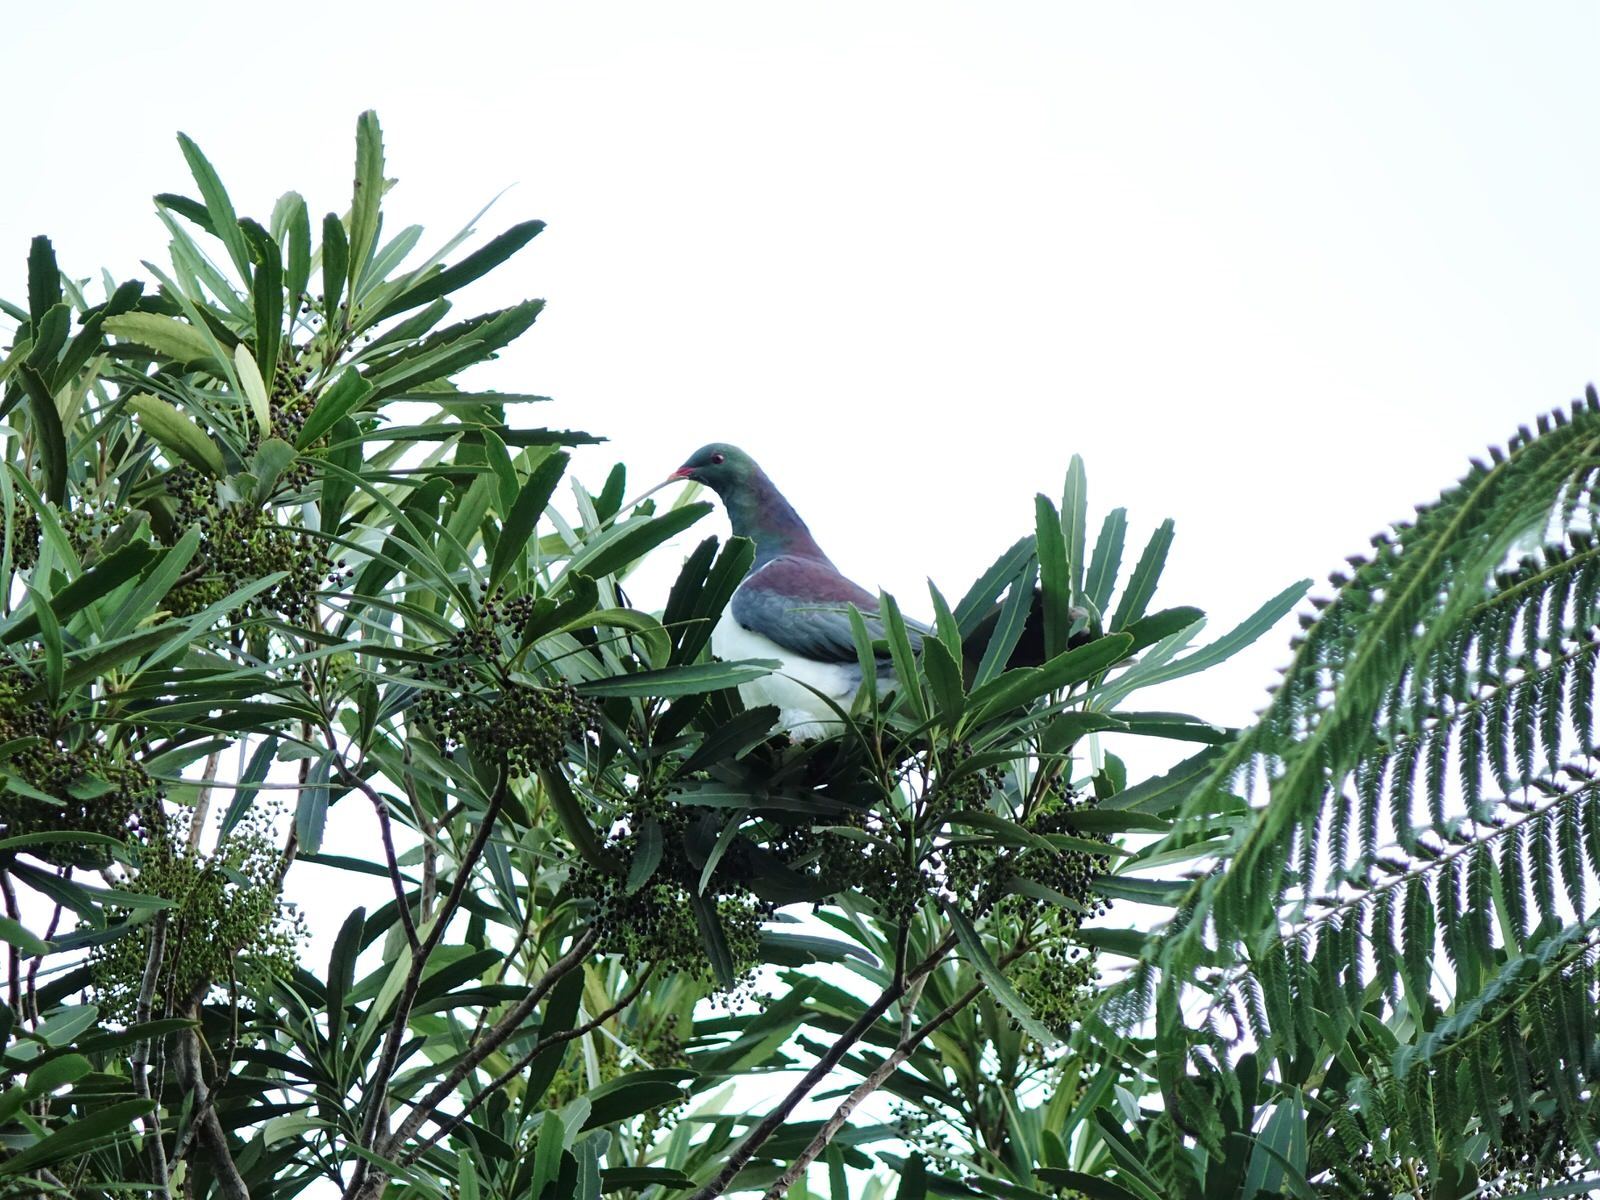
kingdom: Animalia
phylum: Chordata
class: Aves
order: Columbiformes
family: Columbidae
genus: Hemiphaga
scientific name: Hemiphaga novaeseelandiae
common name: New zealand pigeon
